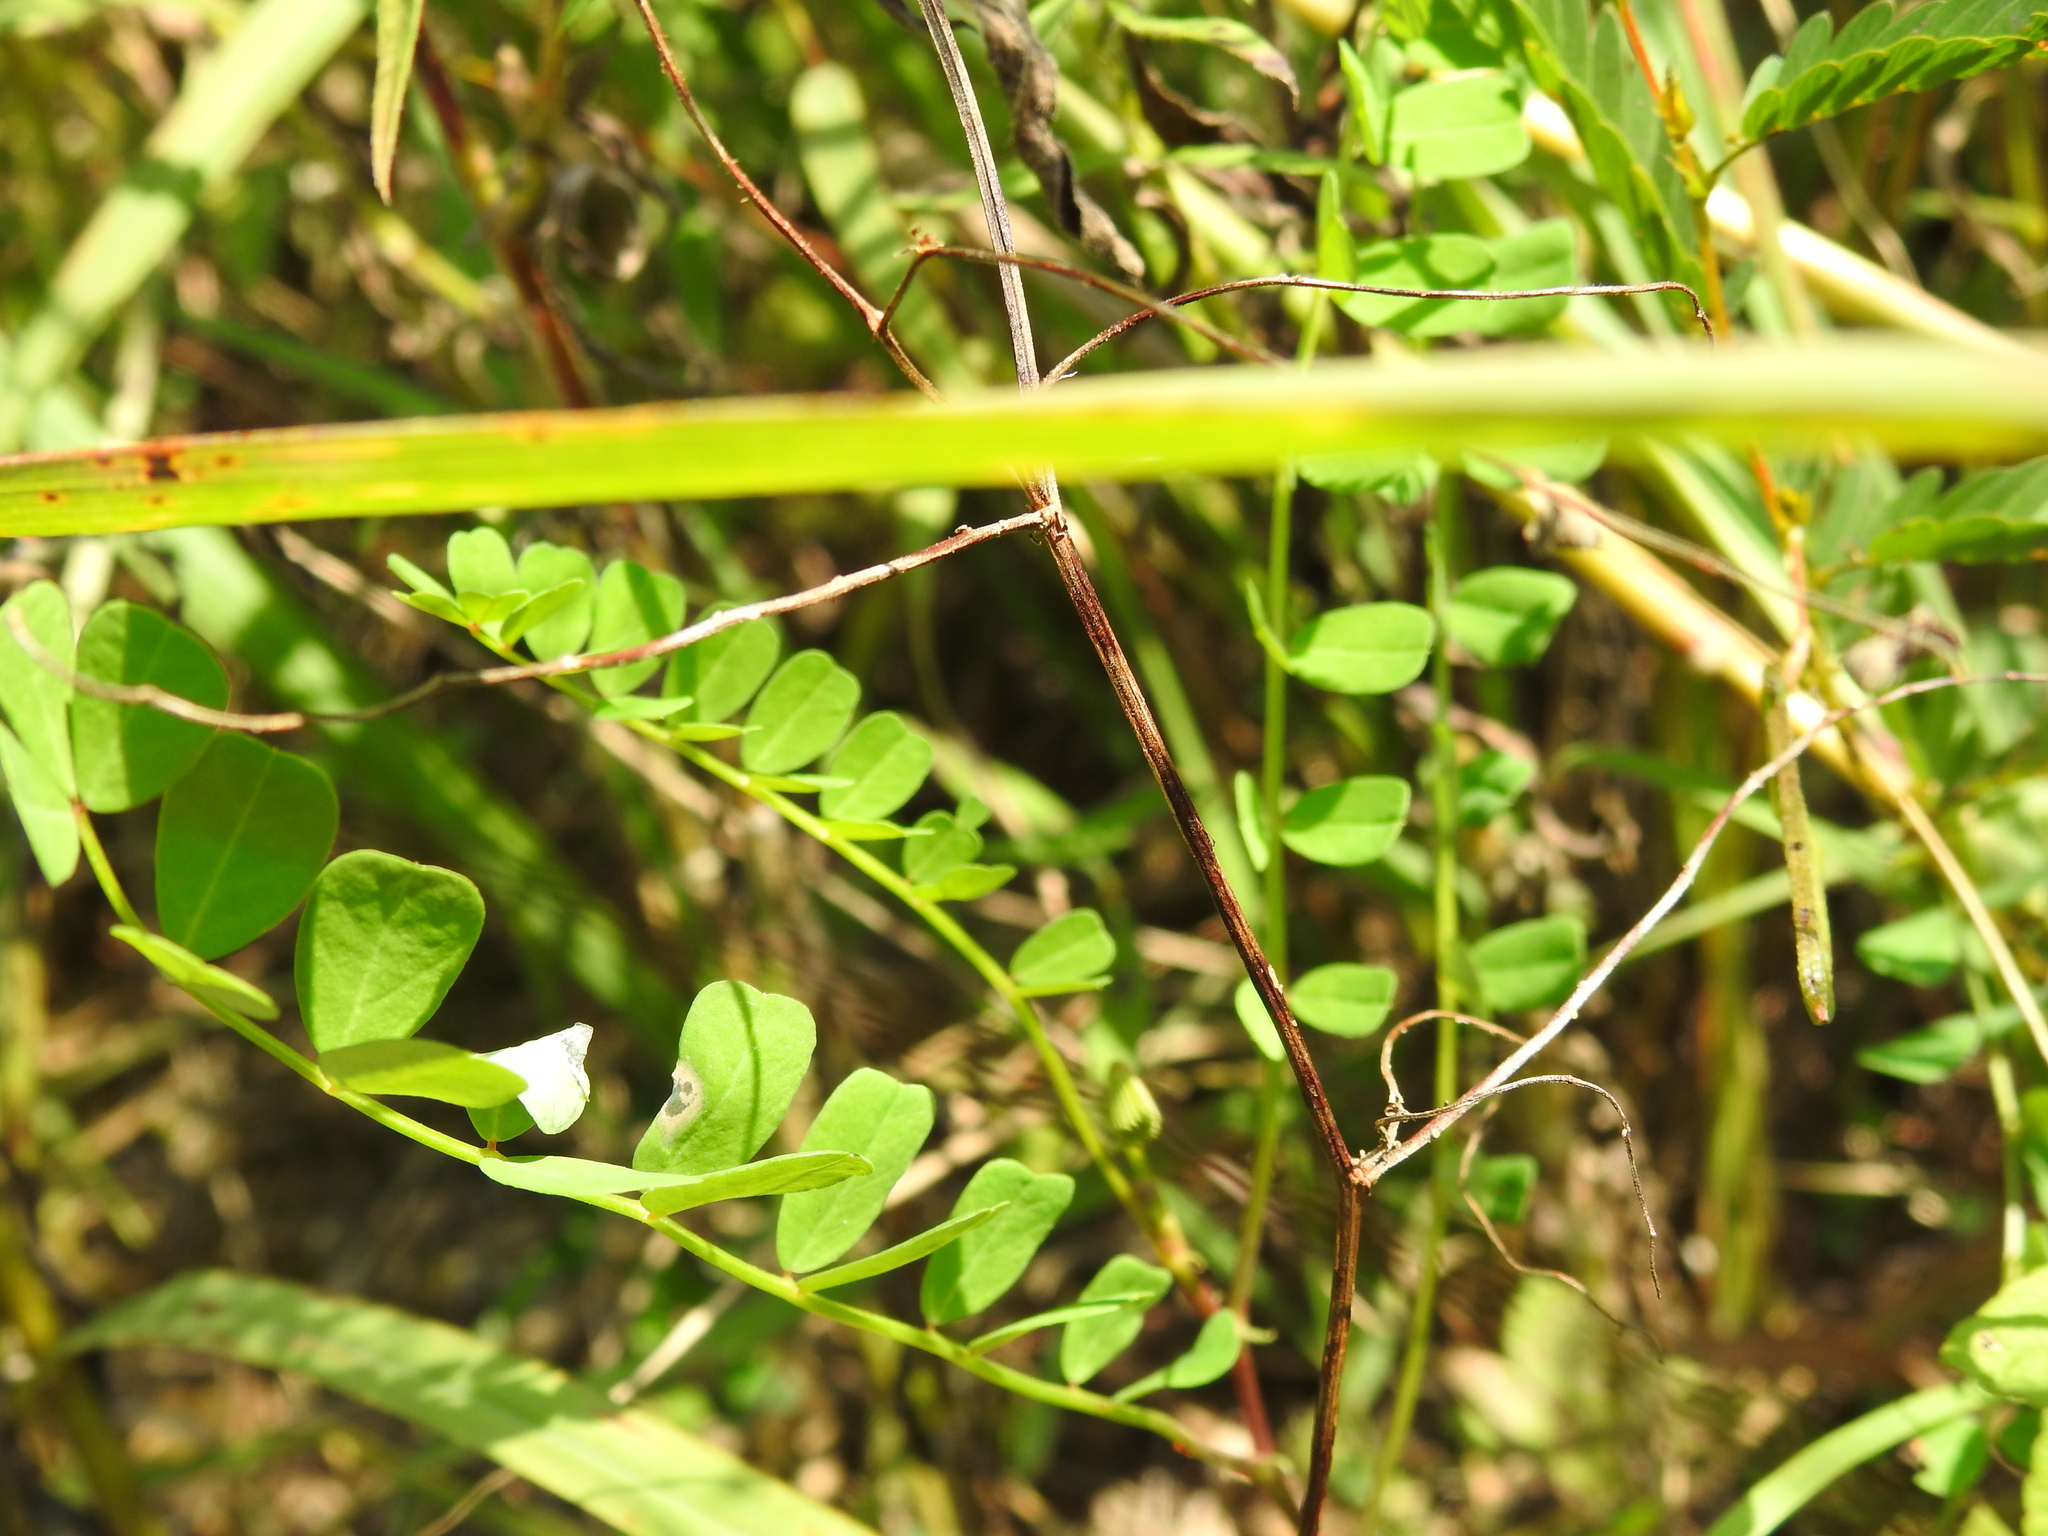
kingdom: Plantae
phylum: Tracheophyta
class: Magnoliopsida
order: Fabales
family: Fabaceae
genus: Coronilla
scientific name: Coronilla varia
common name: Crownvetch
